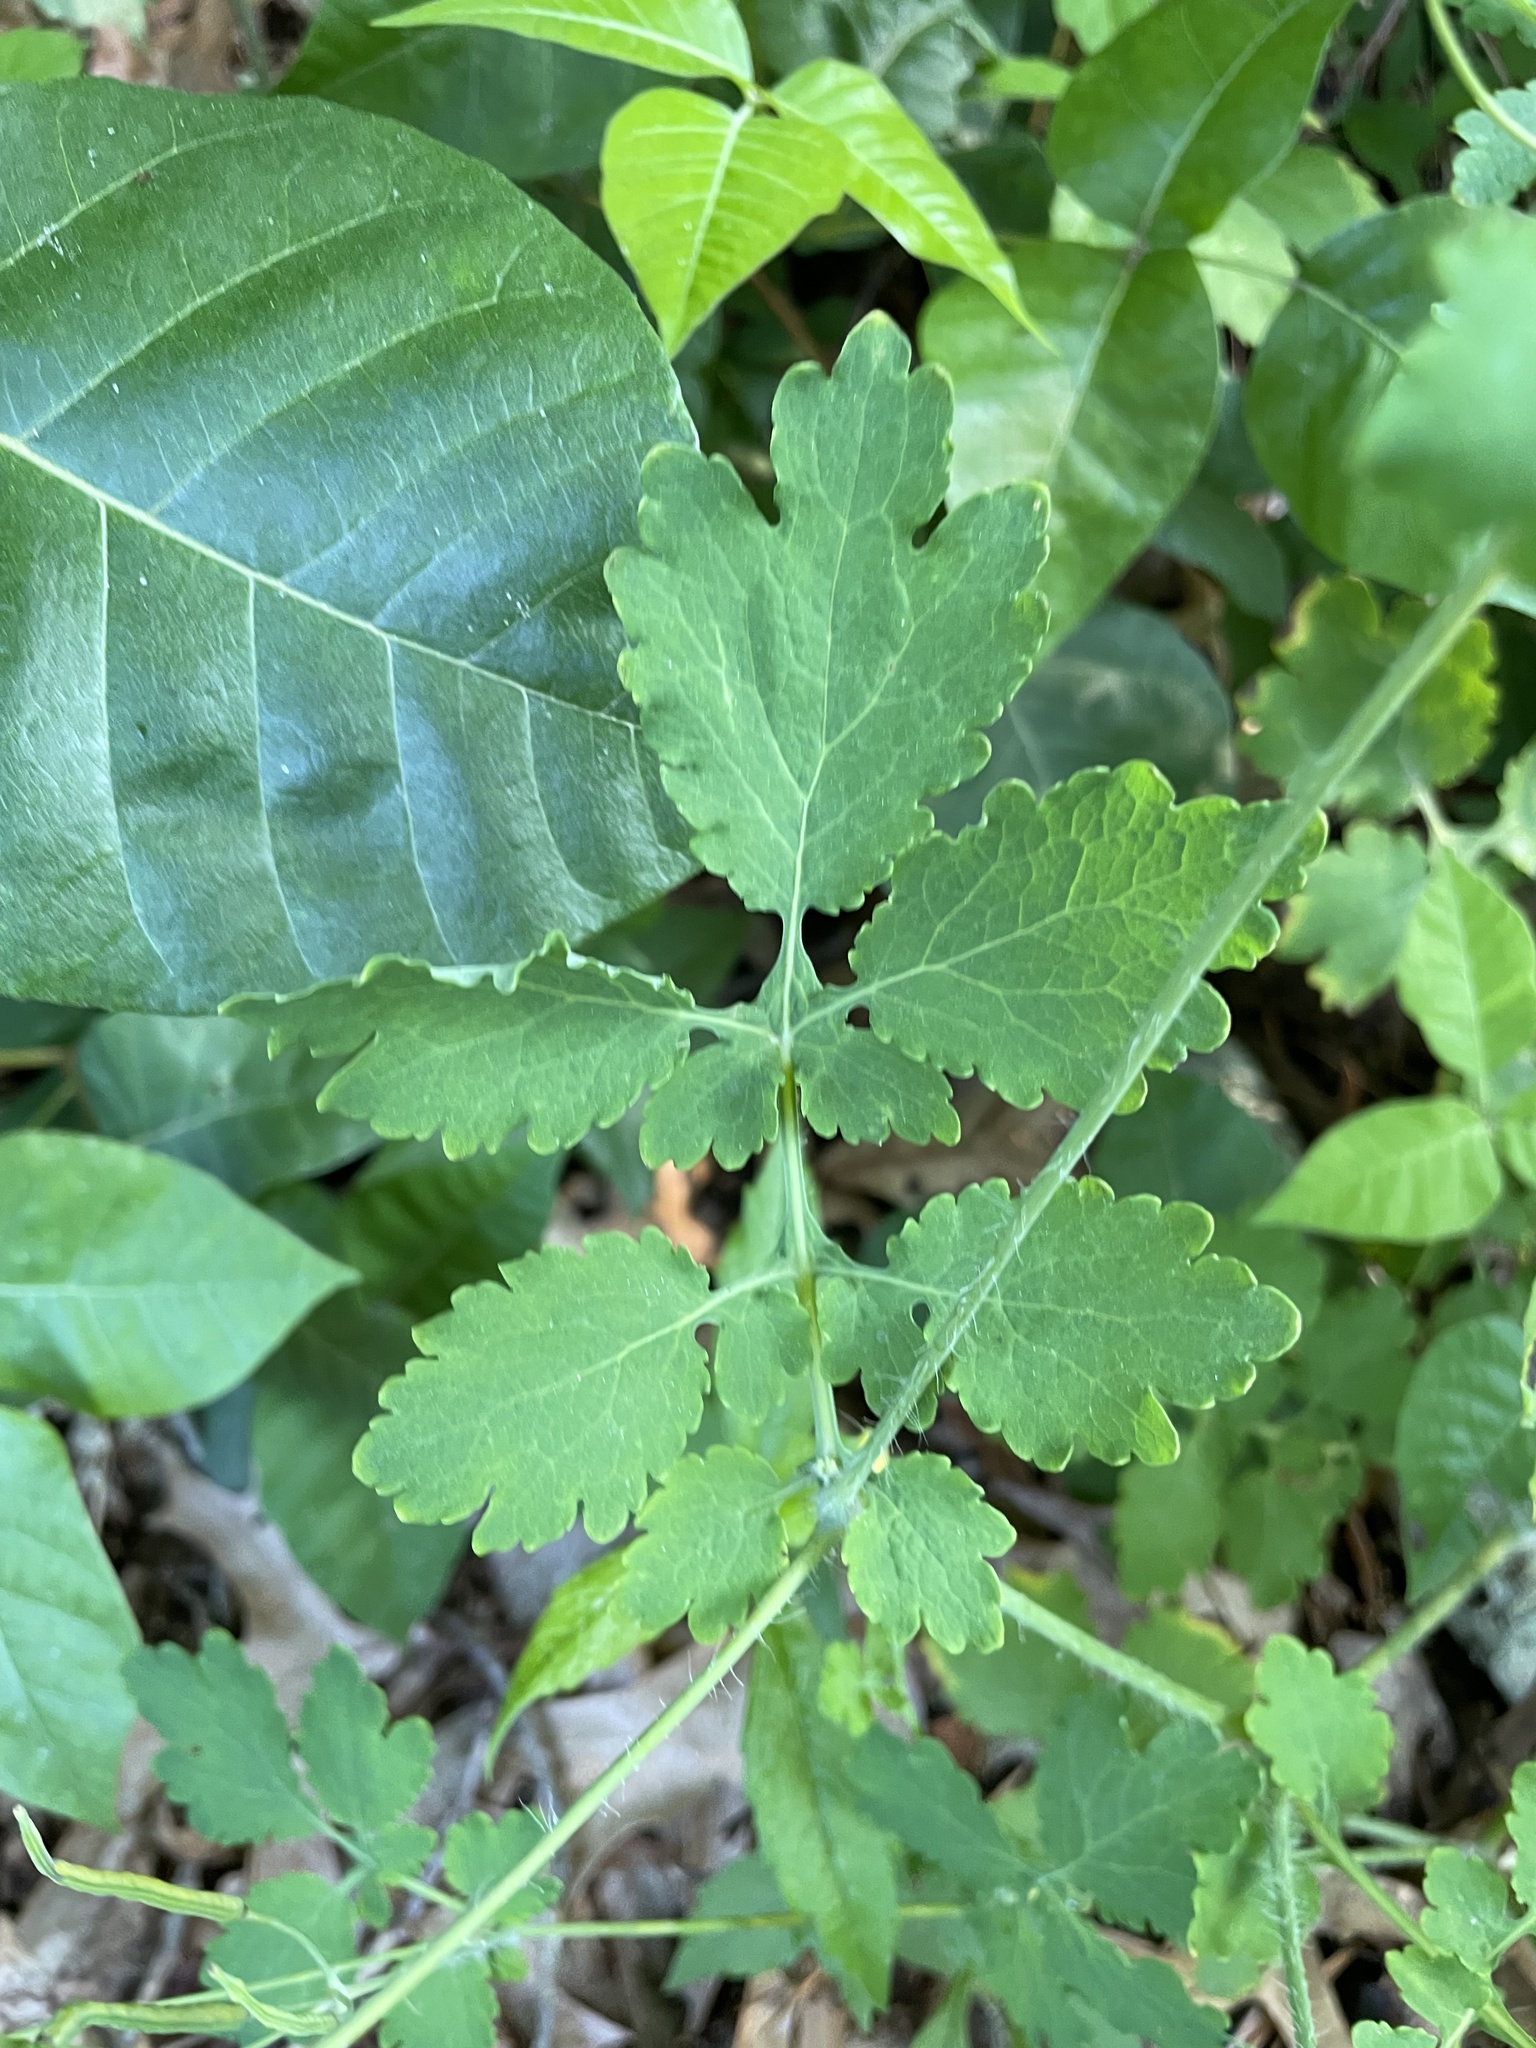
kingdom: Plantae
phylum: Tracheophyta
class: Magnoliopsida
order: Ranunculales
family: Papaveraceae
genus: Chelidonium
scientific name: Chelidonium majus
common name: Greater celandine
